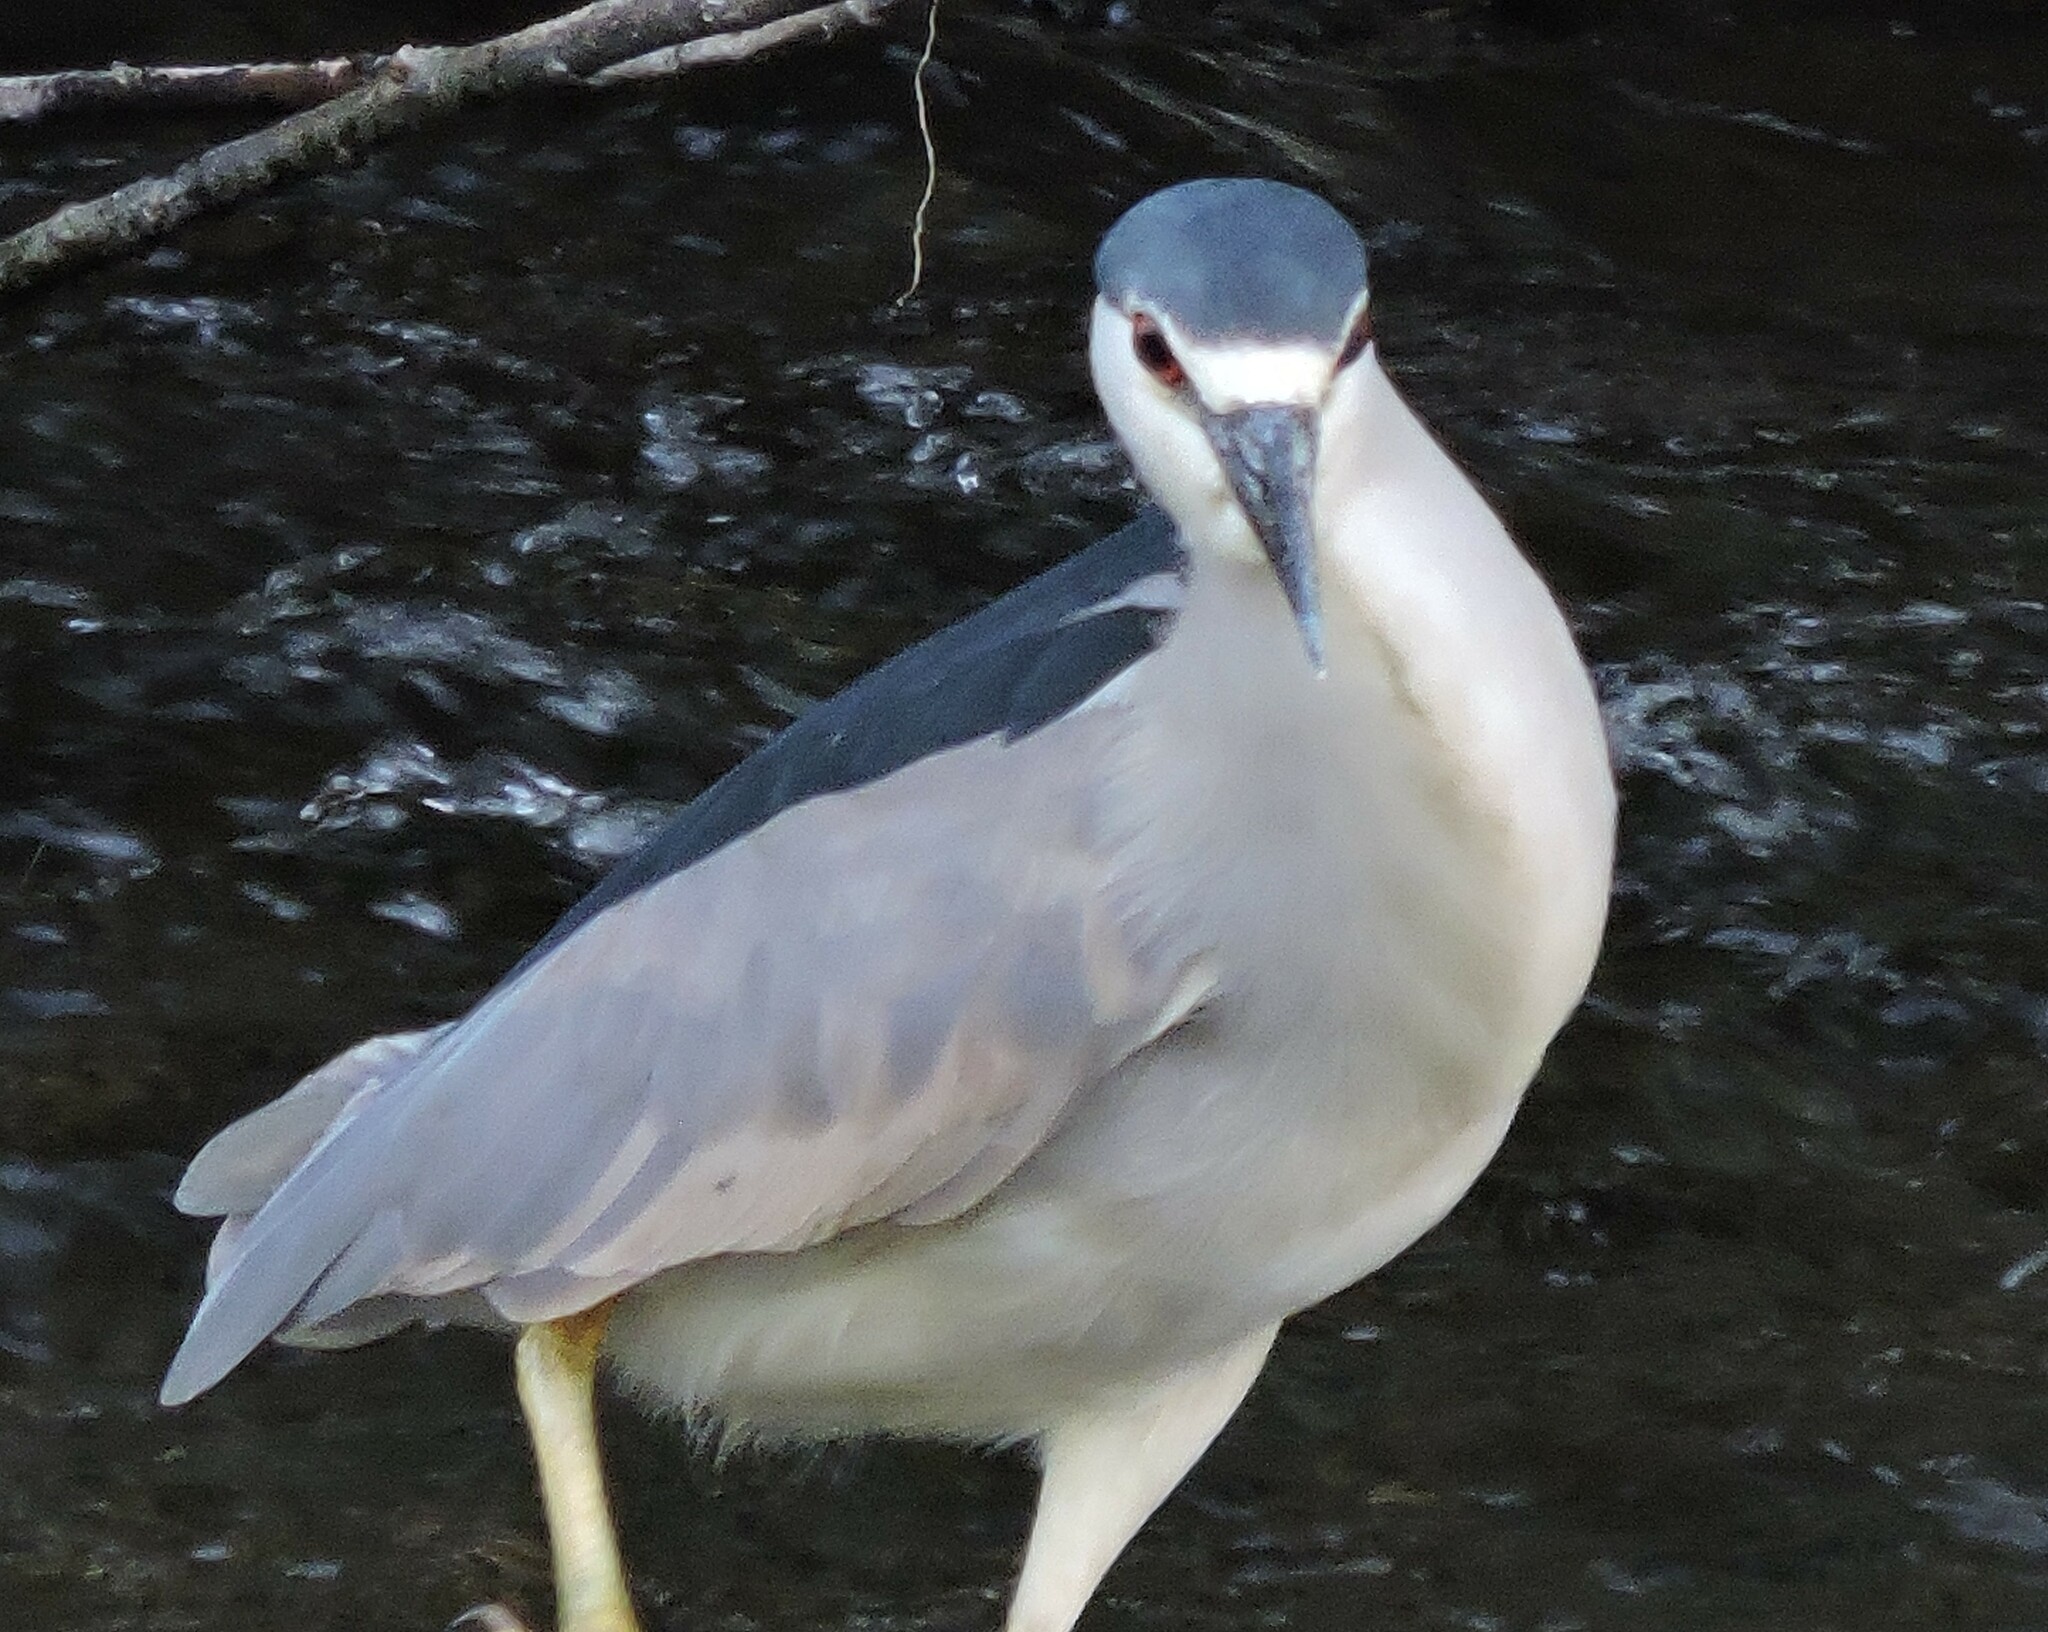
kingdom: Animalia
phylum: Chordata
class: Aves
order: Pelecaniformes
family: Ardeidae
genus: Nycticorax
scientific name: Nycticorax nycticorax
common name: Black-crowned night heron
